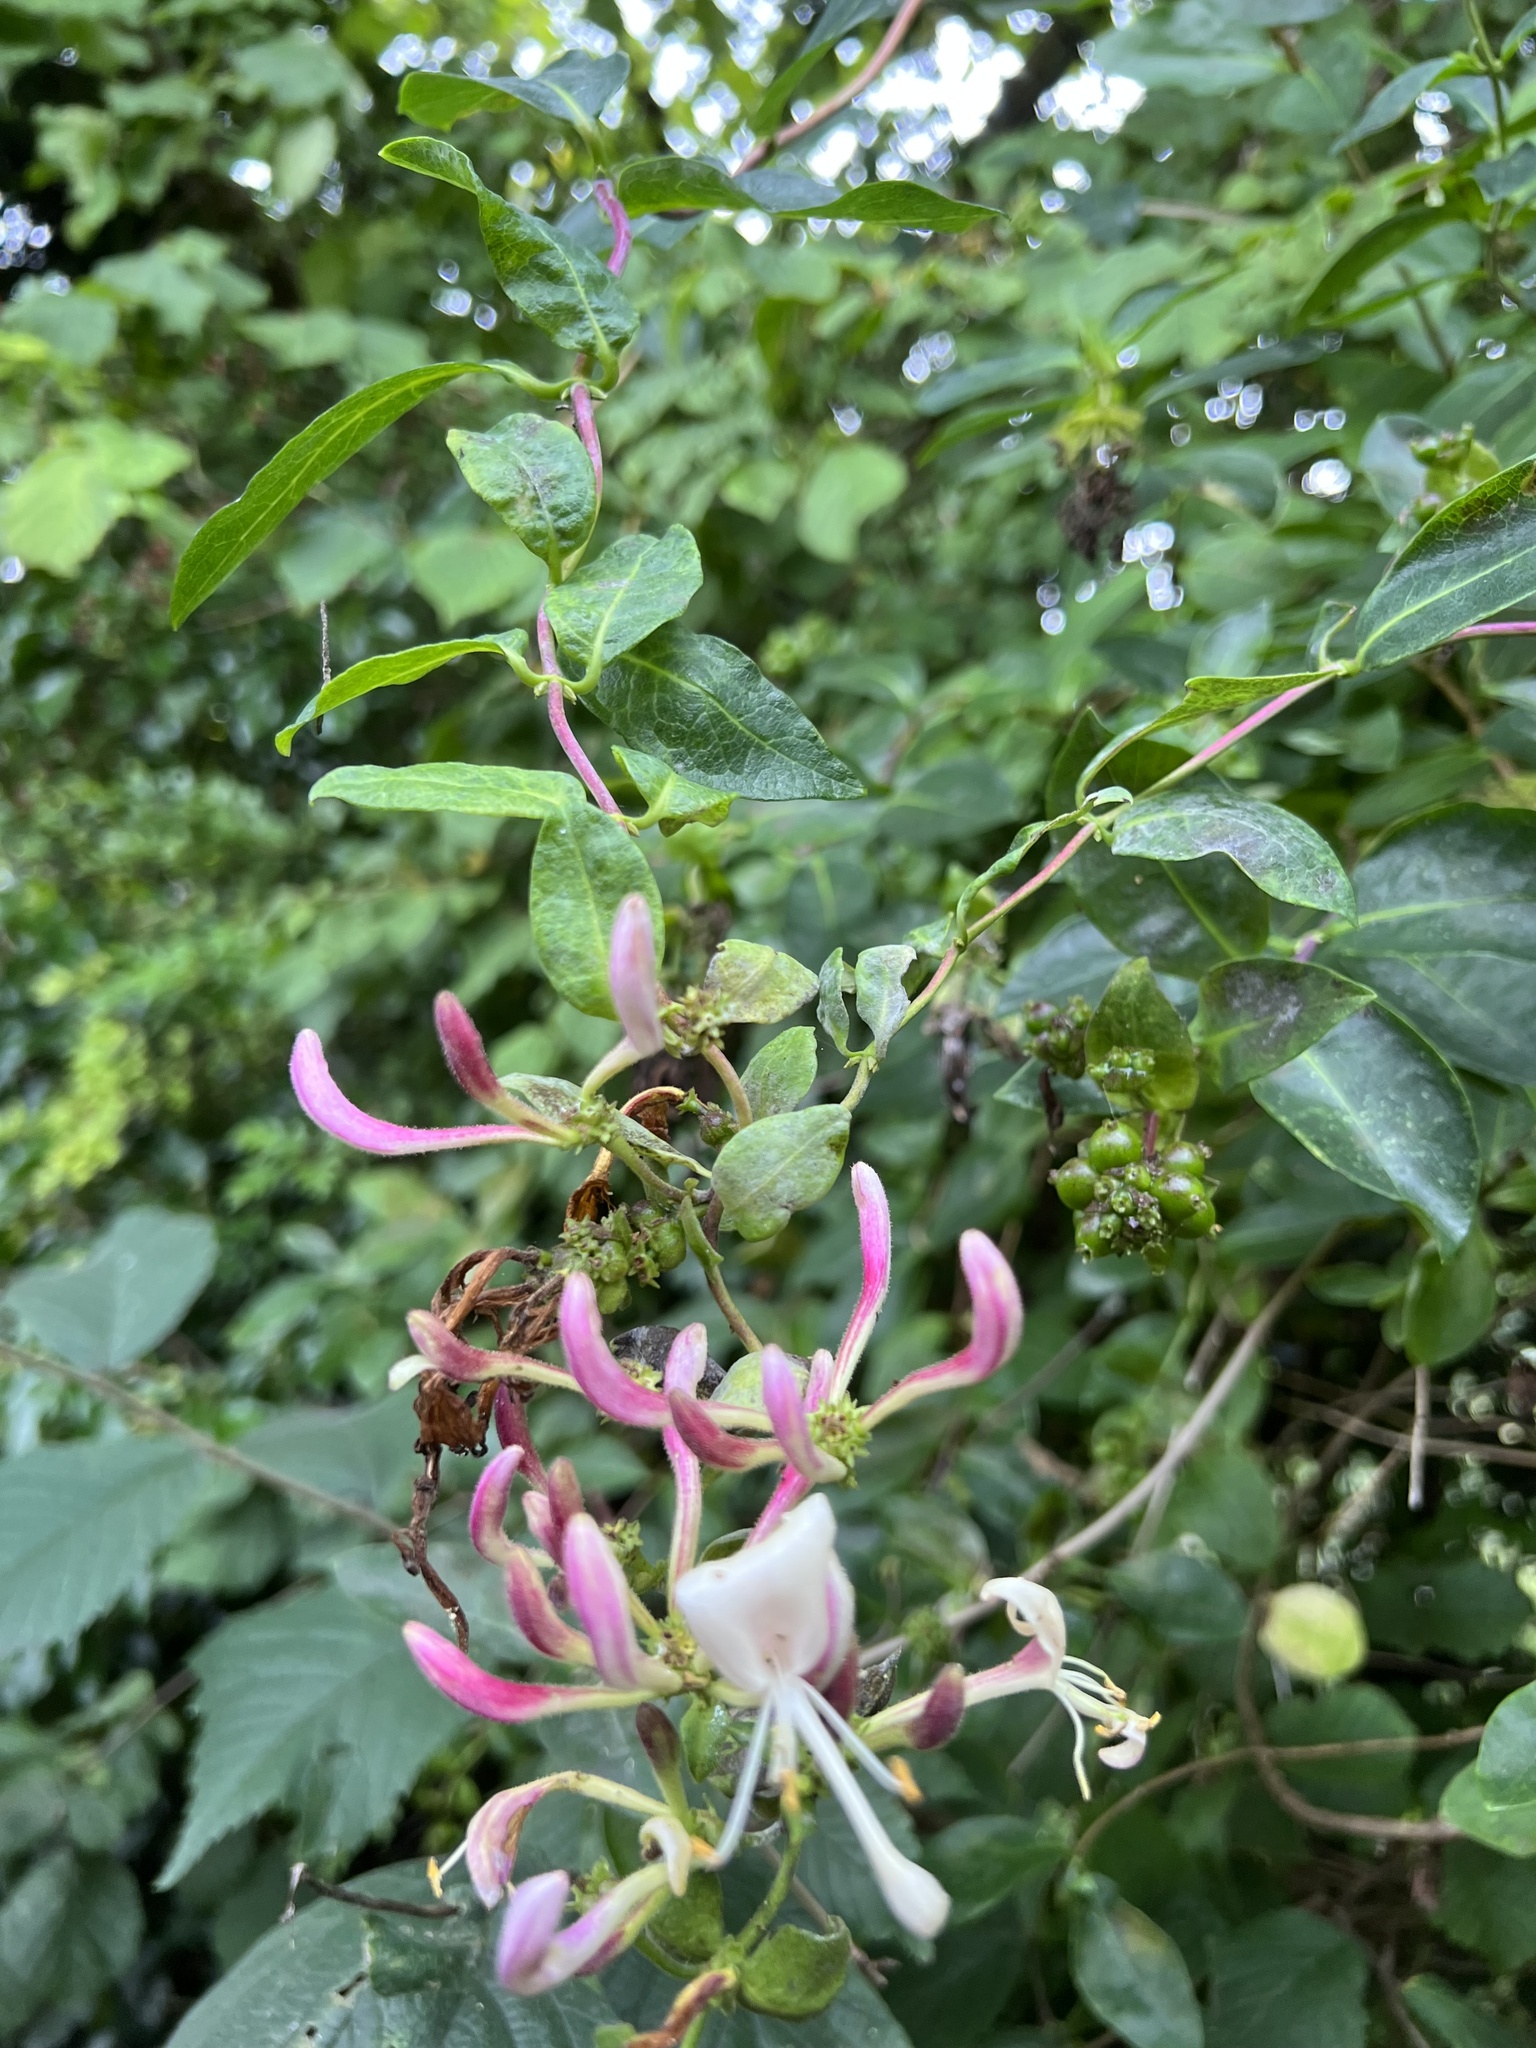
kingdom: Plantae
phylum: Tracheophyta
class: Magnoliopsida
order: Dipsacales
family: Caprifoliaceae
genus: Lonicera
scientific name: Lonicera periclymenum
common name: European honeysuckle
